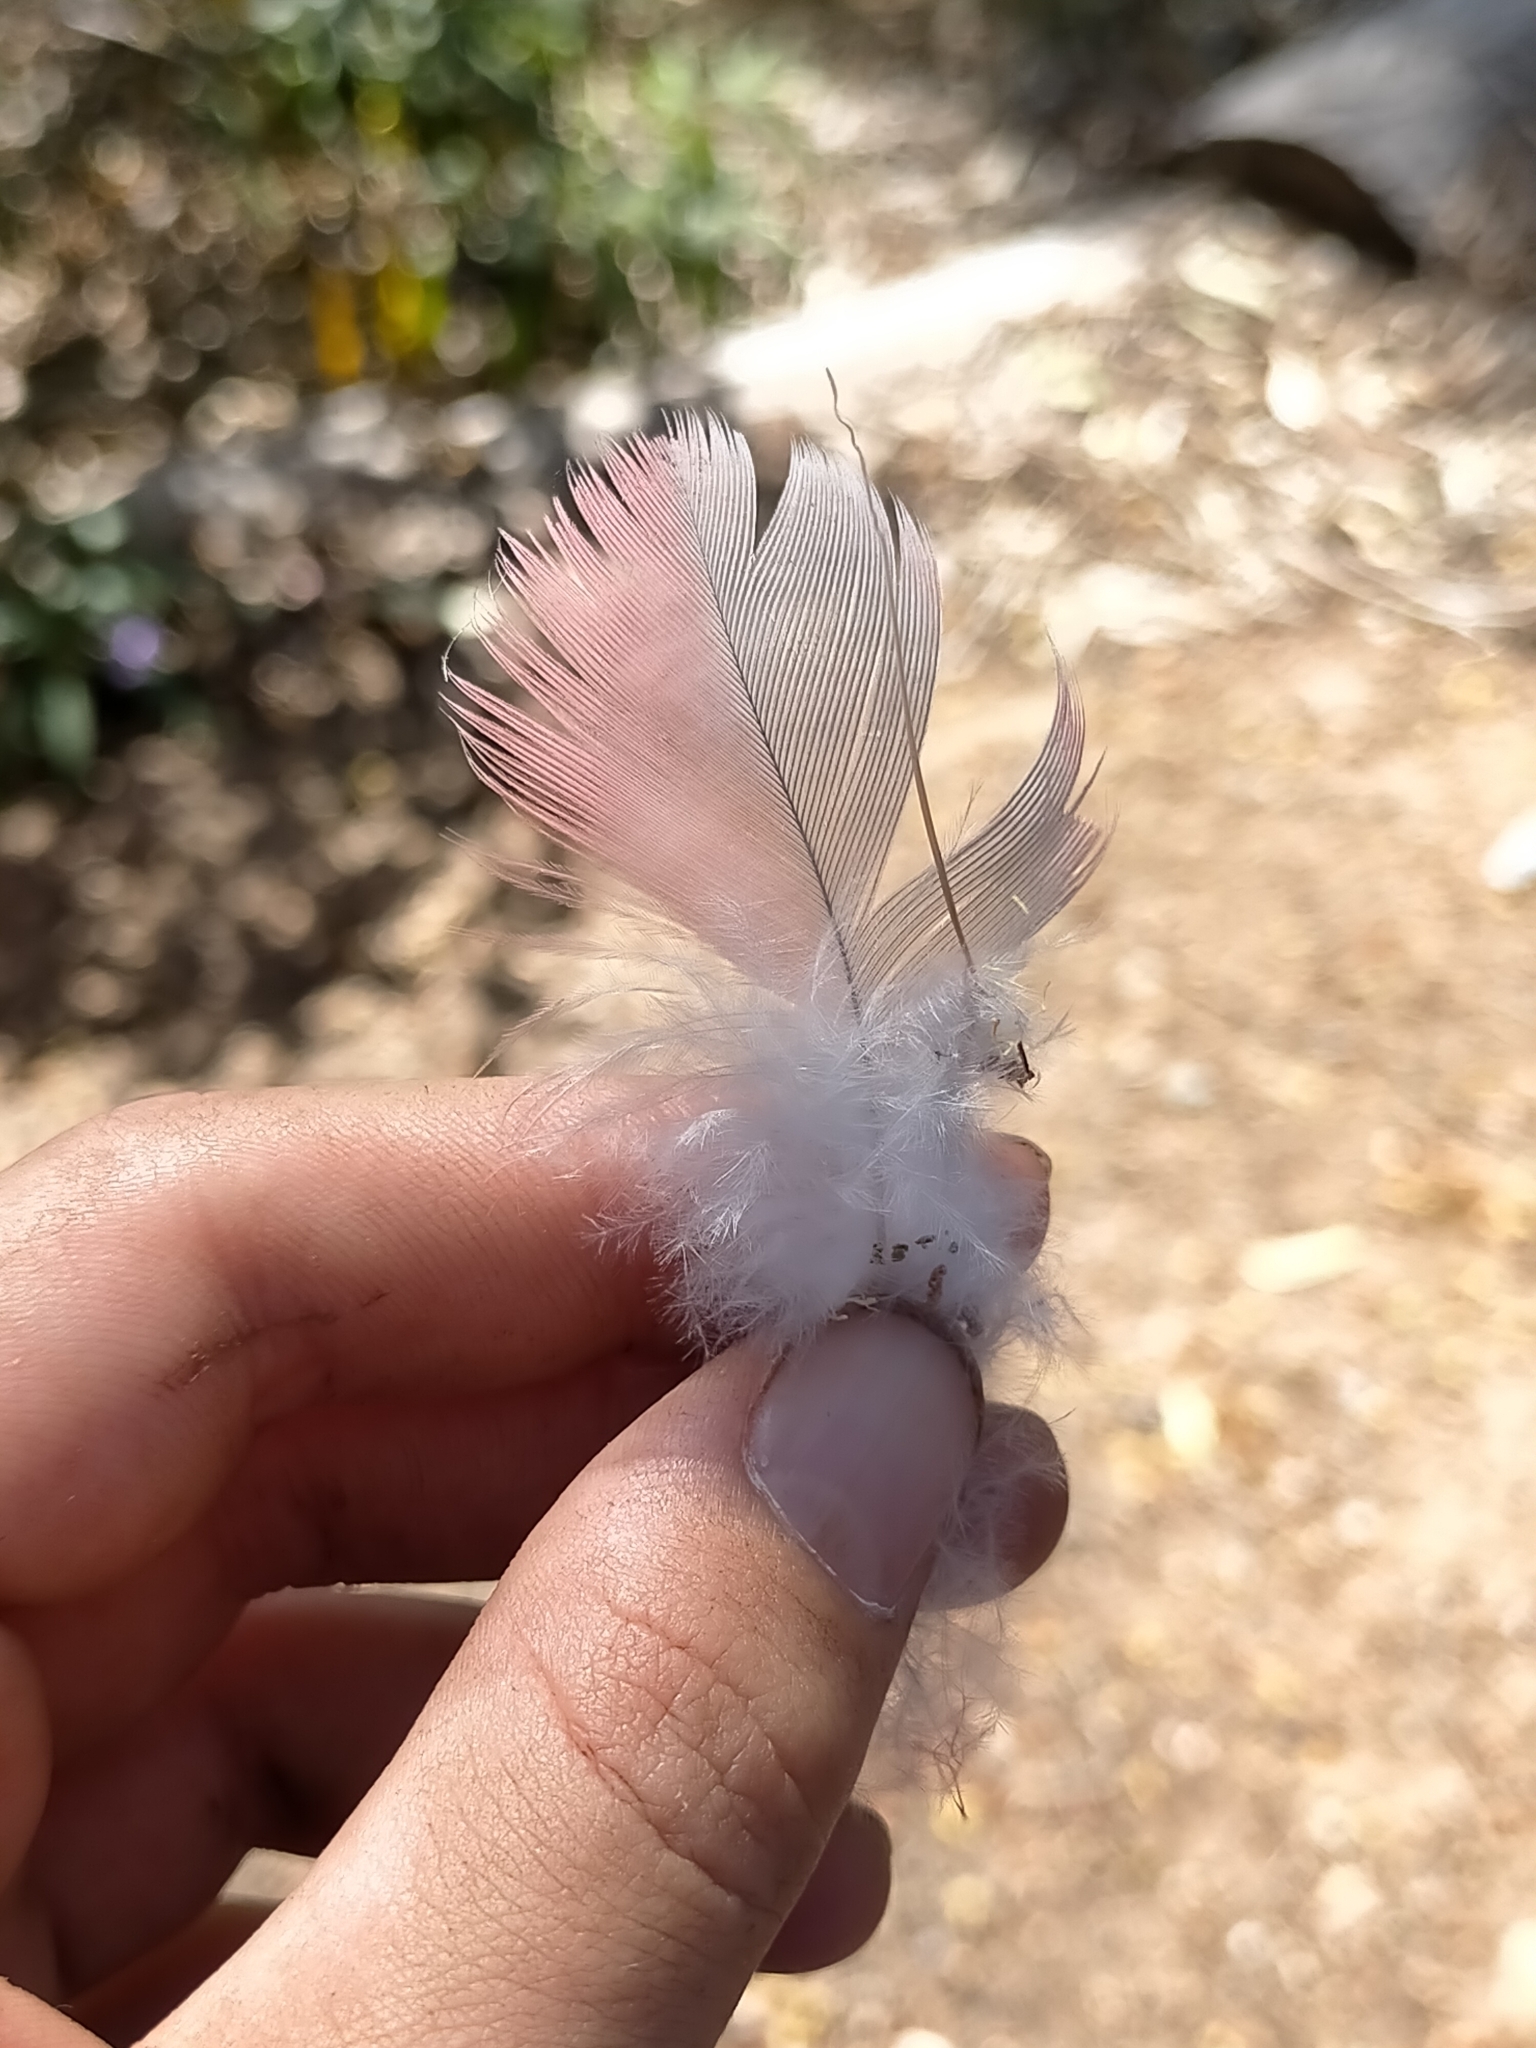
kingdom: Animalia
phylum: Chordata
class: Aves
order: Psittaciformes
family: Psittacidae
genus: Eolophus
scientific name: Eolophus roseicapilla
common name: Galah
